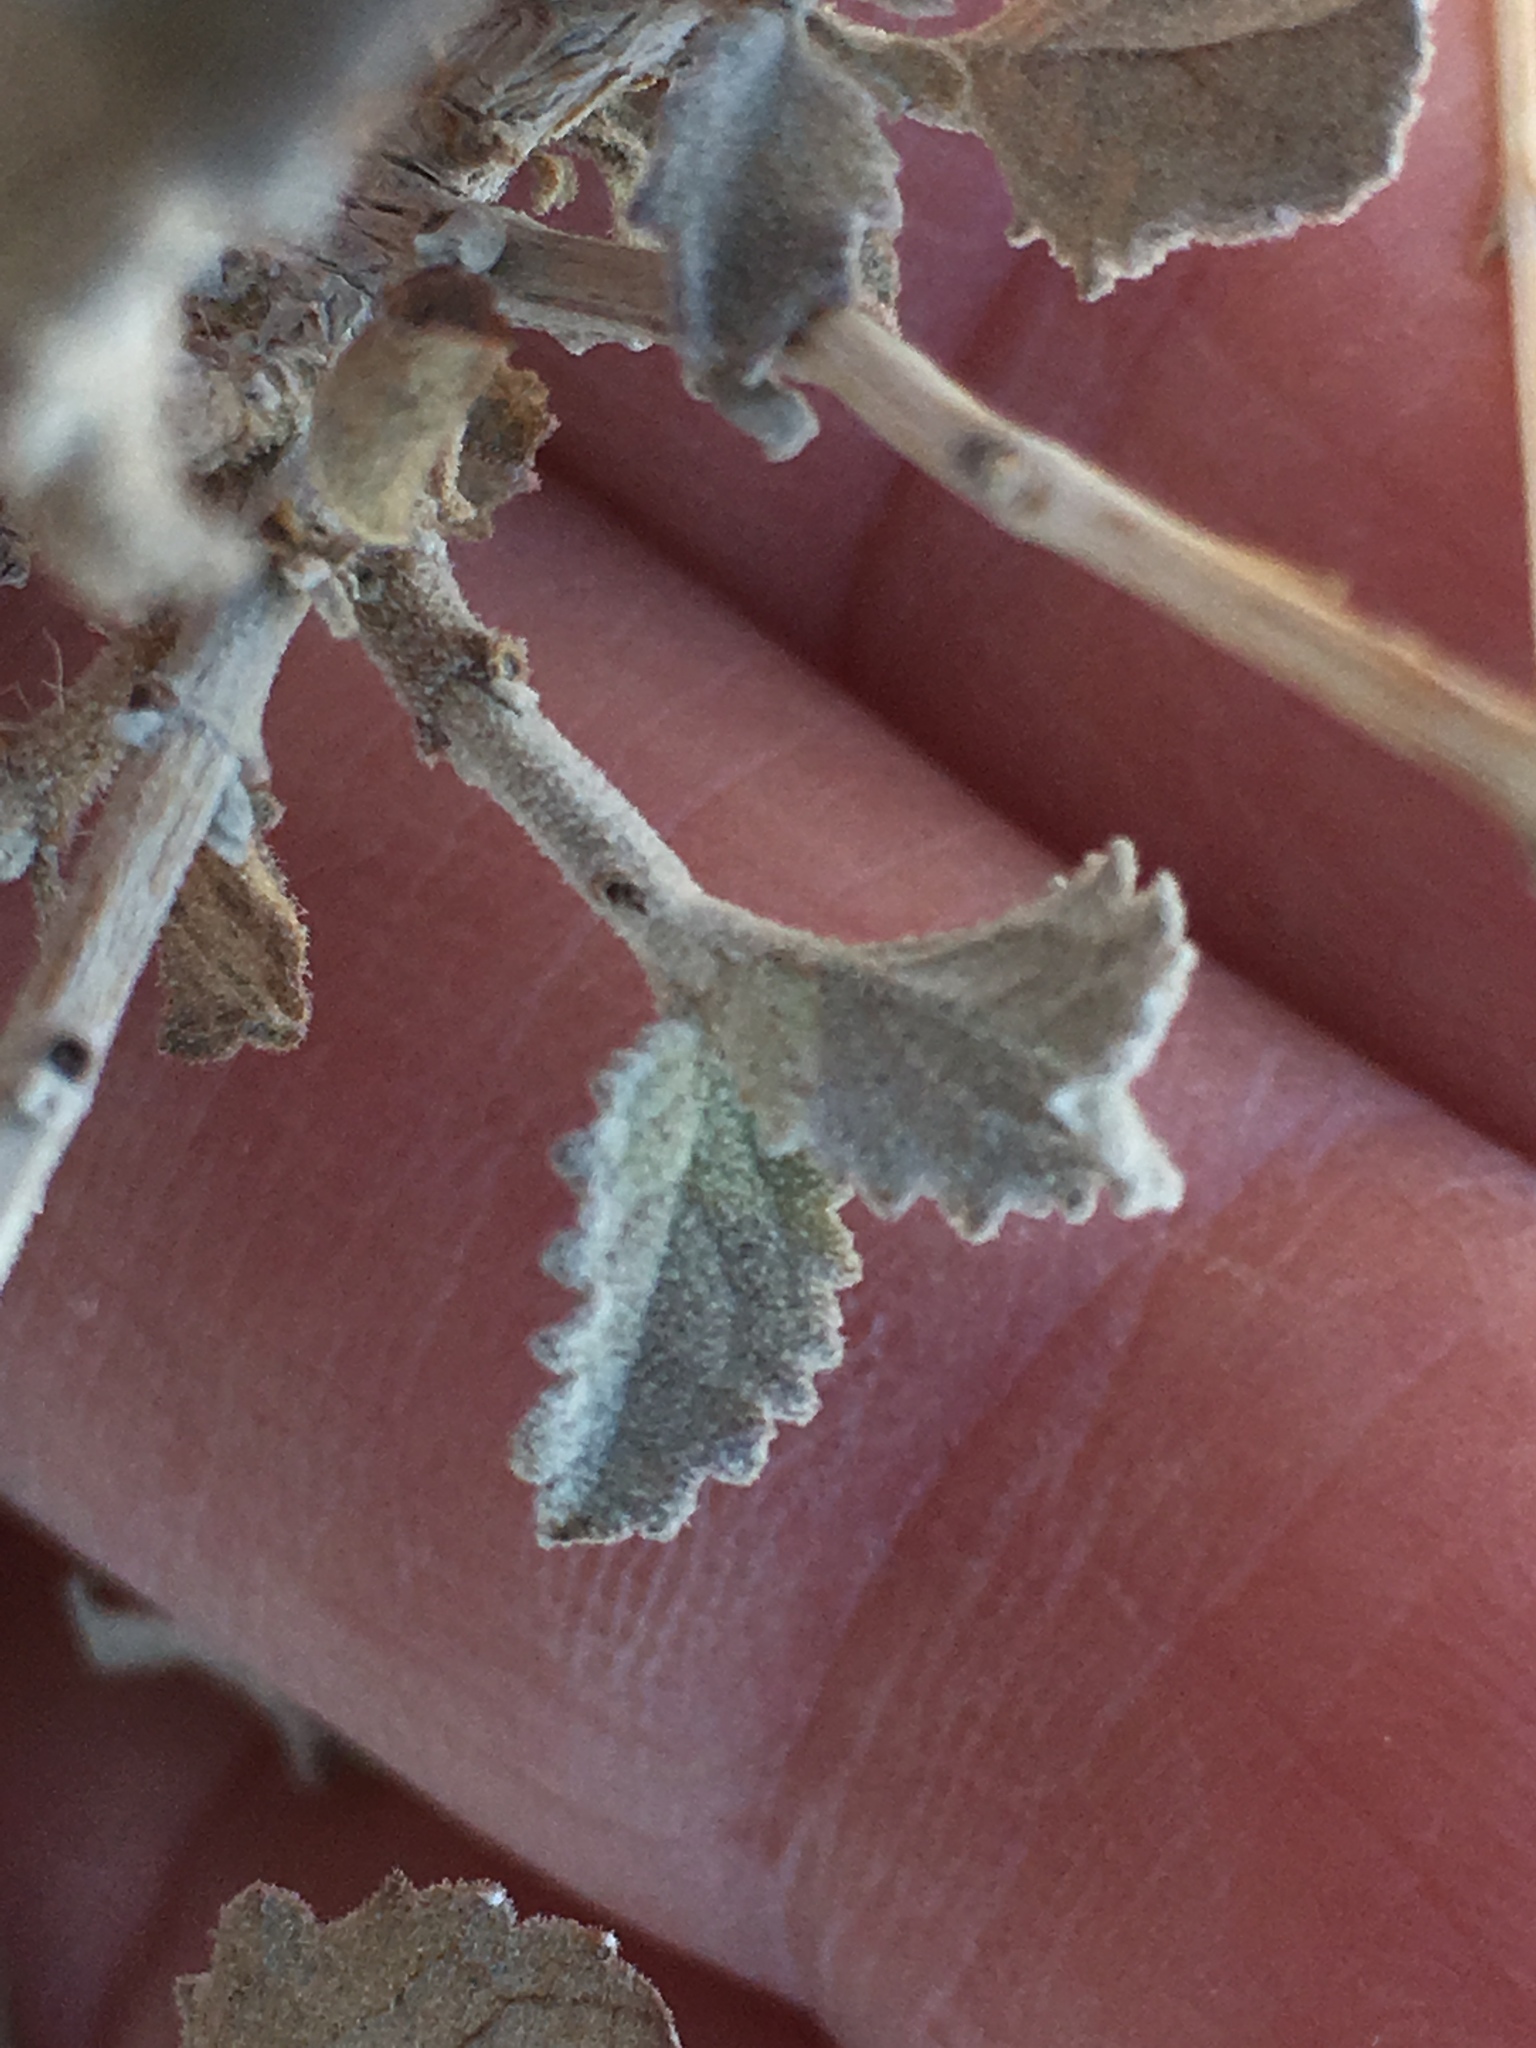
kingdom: Plantae
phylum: Tracheophyta
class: Magnoliopsida
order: Lamiales
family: Lamiaceae
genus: Condea
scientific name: Condea emoryi
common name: Chia
